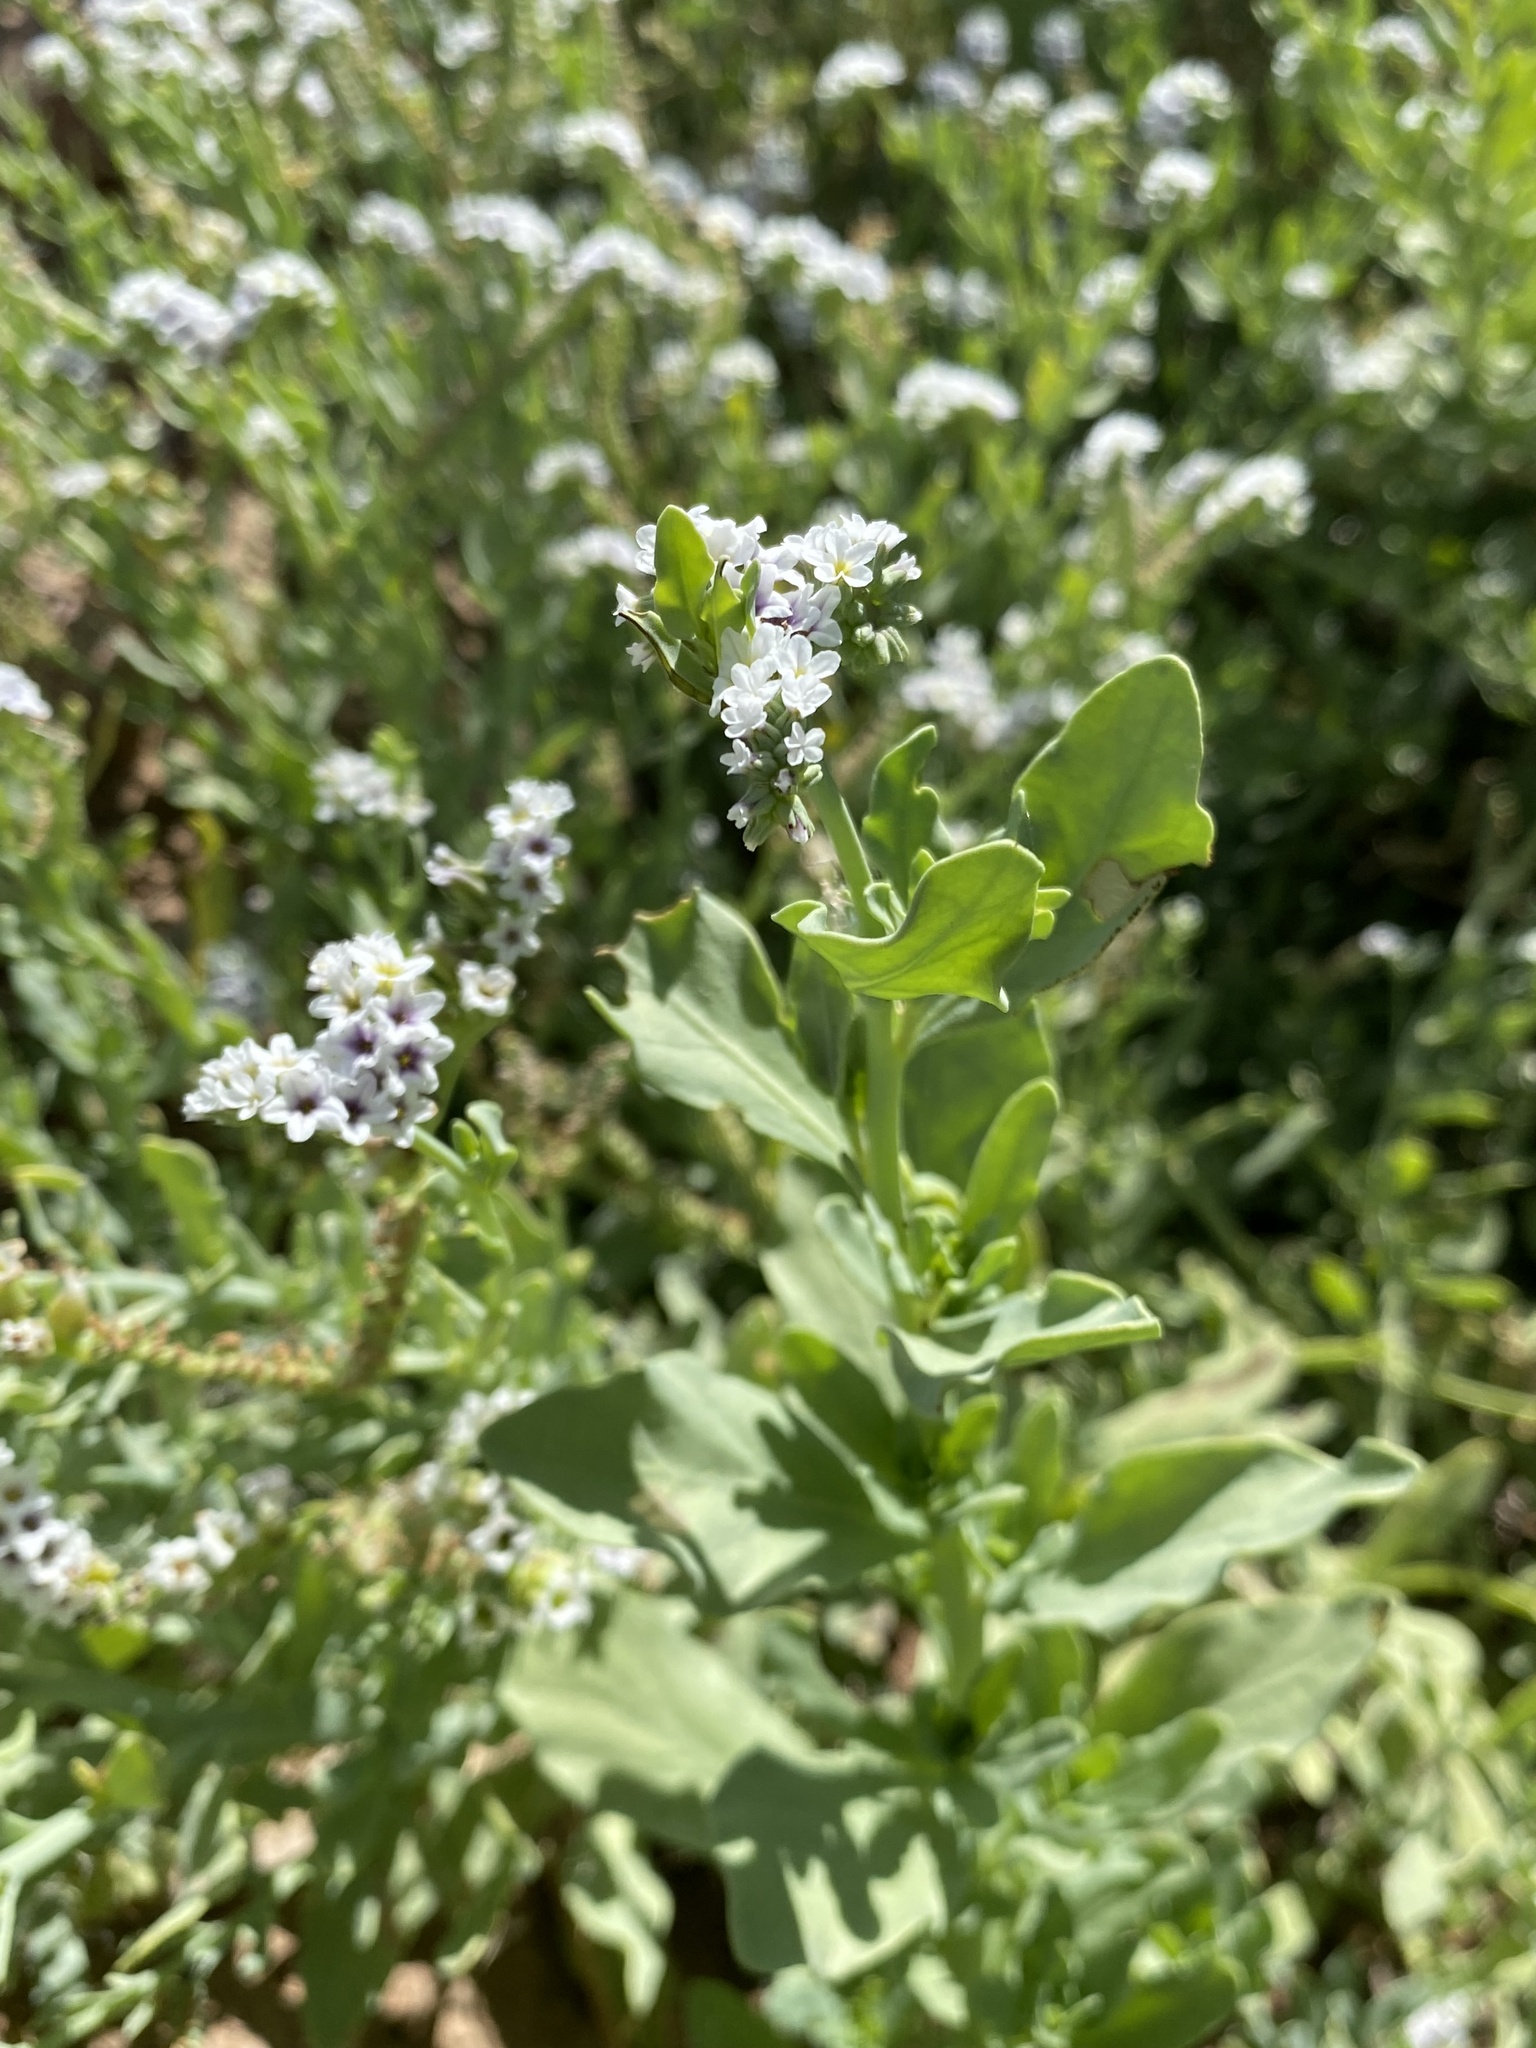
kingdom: Plantae
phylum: Tracheophyta
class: Magnoliopsida
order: Boraginales
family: Heliotropiaceae
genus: Heliotropium
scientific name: Heliotropium curassavicum
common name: Seaside heliotrope
